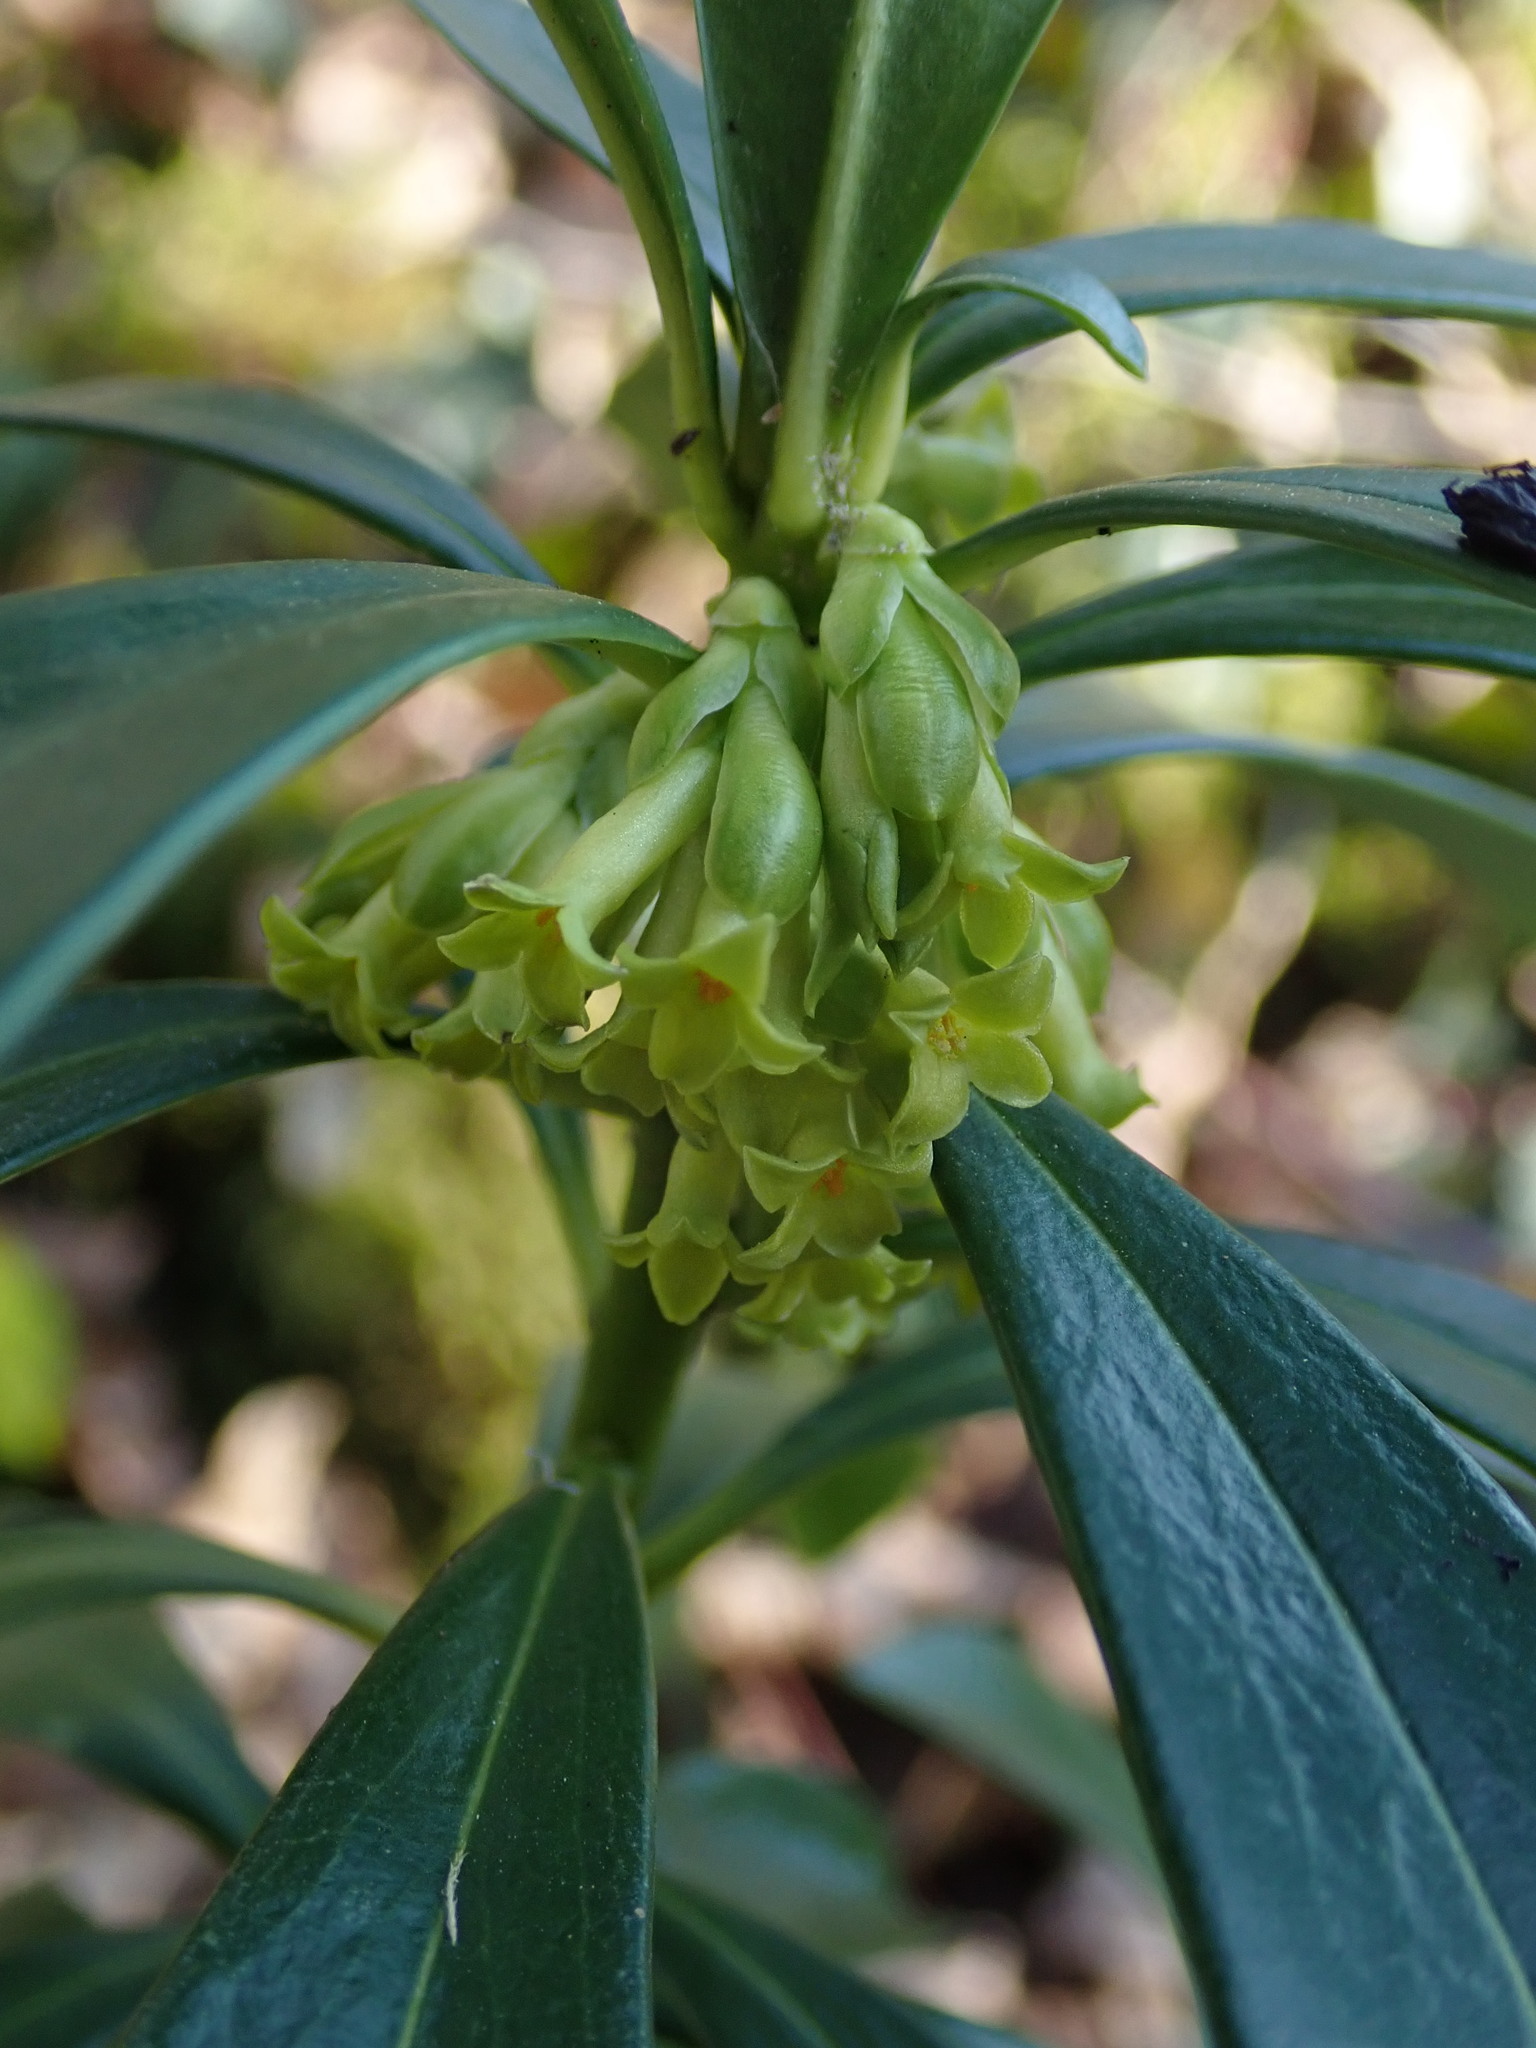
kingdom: Plantae
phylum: Tracheophyta
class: Magnoliopsida
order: Malvales
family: Thymelaeaceae
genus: Daphne
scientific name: Daphne laureola
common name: Spurge-laurel
